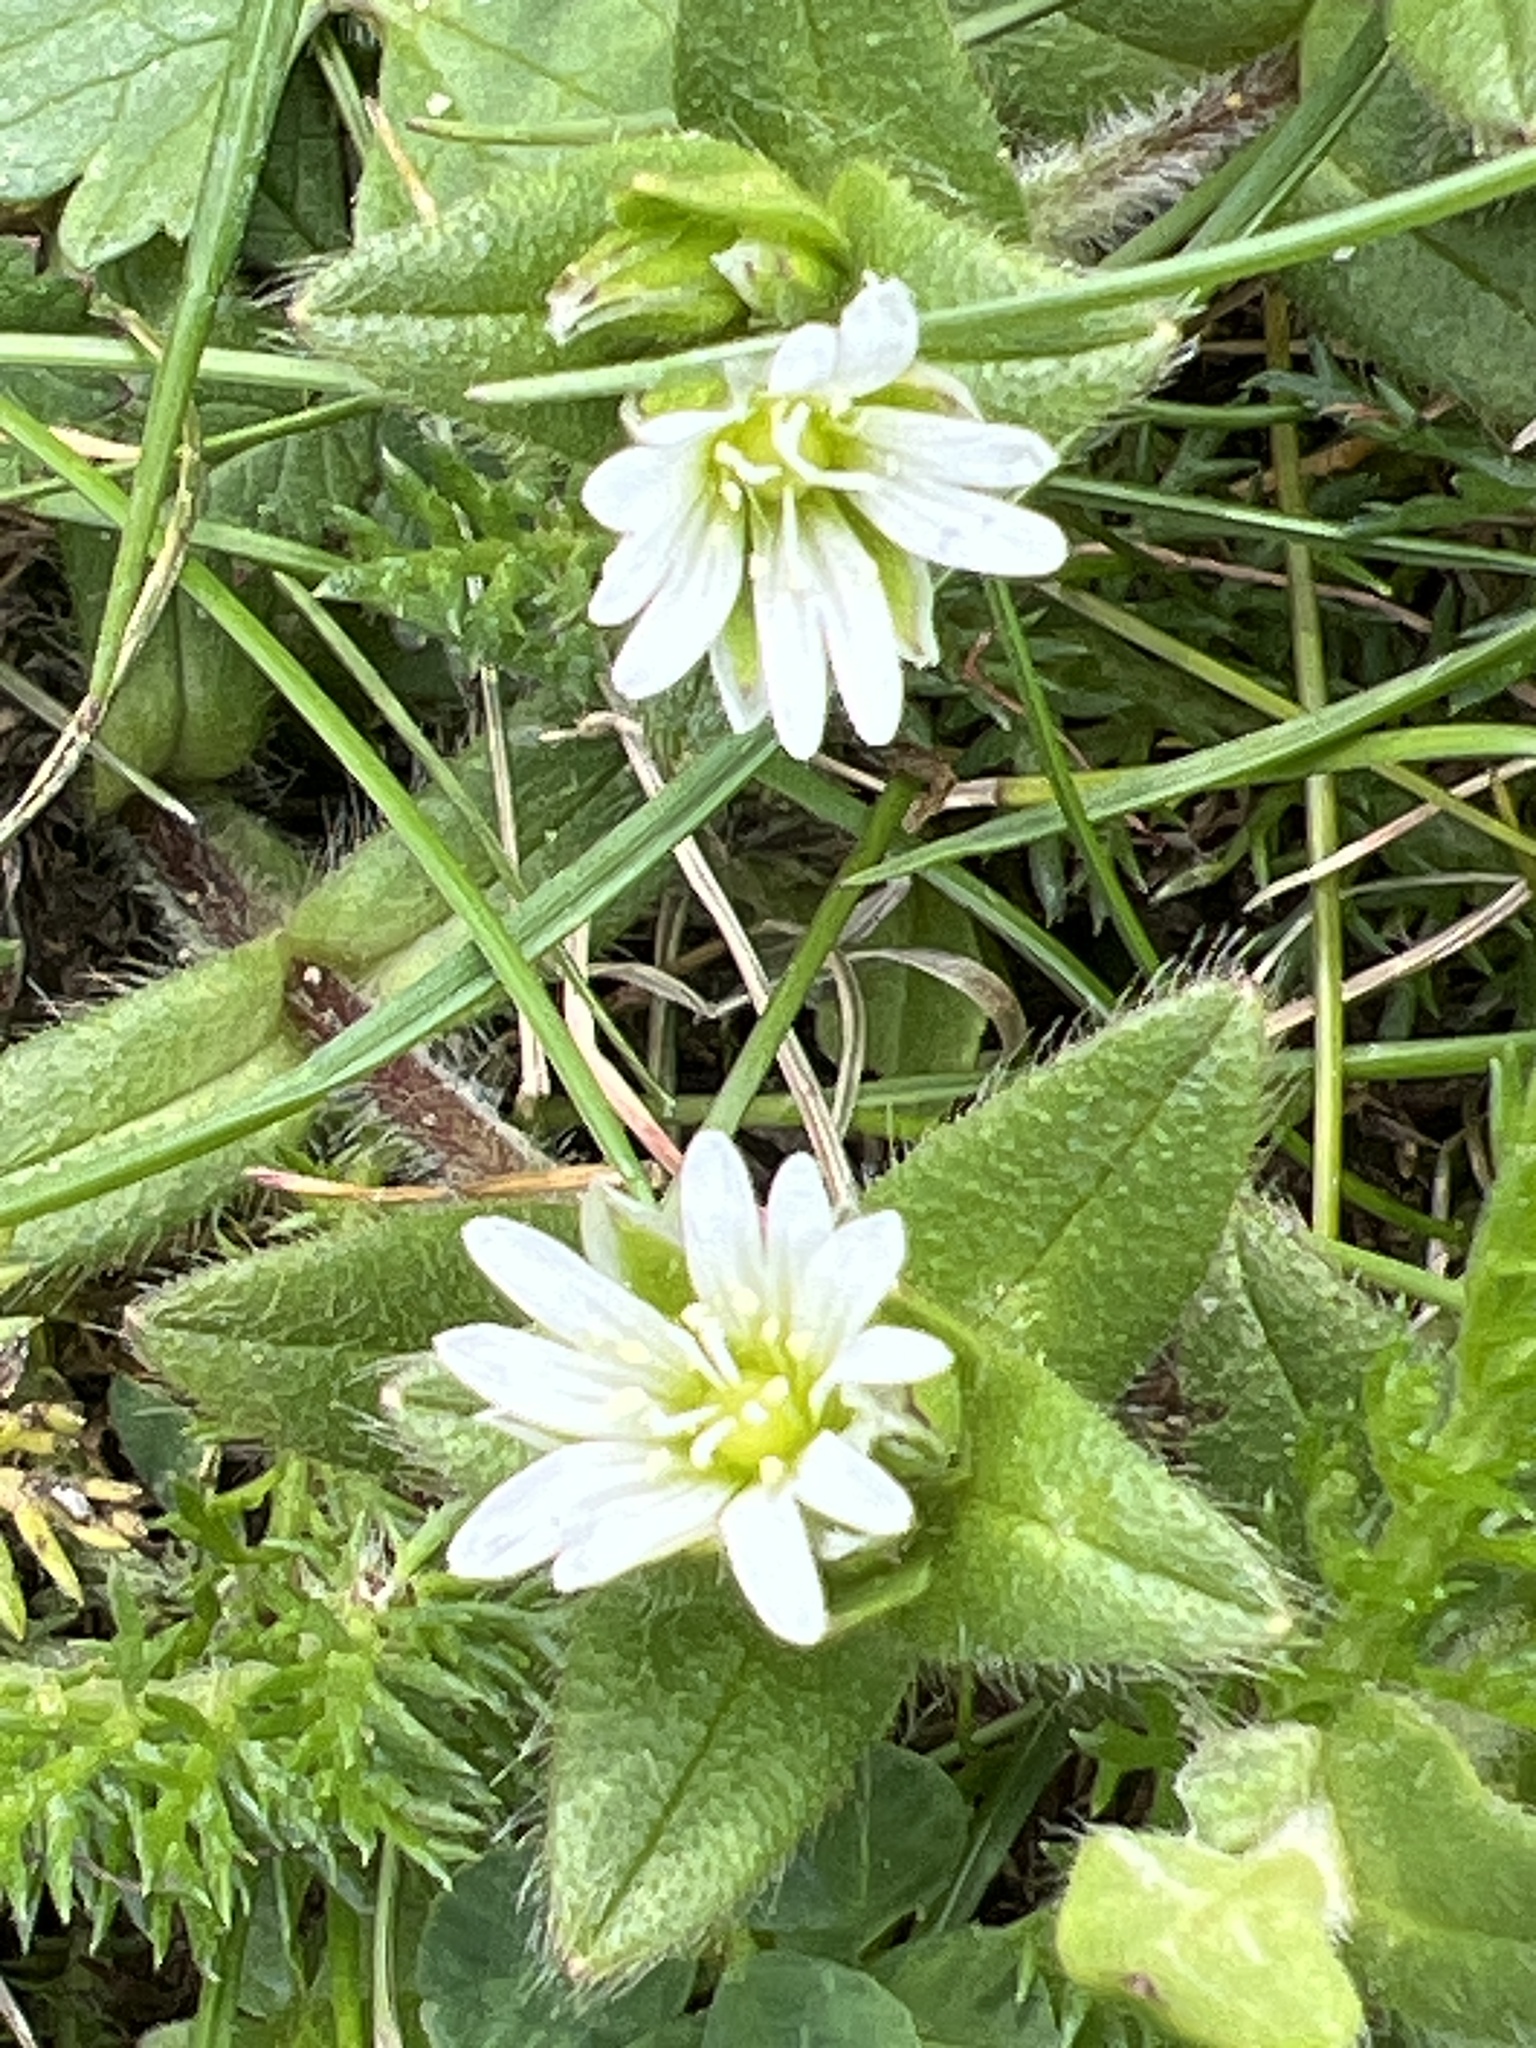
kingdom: Plantae
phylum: Tracheophyta
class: Magnoliopsida
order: Caryophyllales
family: Caryophyllaceae
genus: Cerastium
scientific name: Cerastium fontanum
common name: Common mouse-ear
